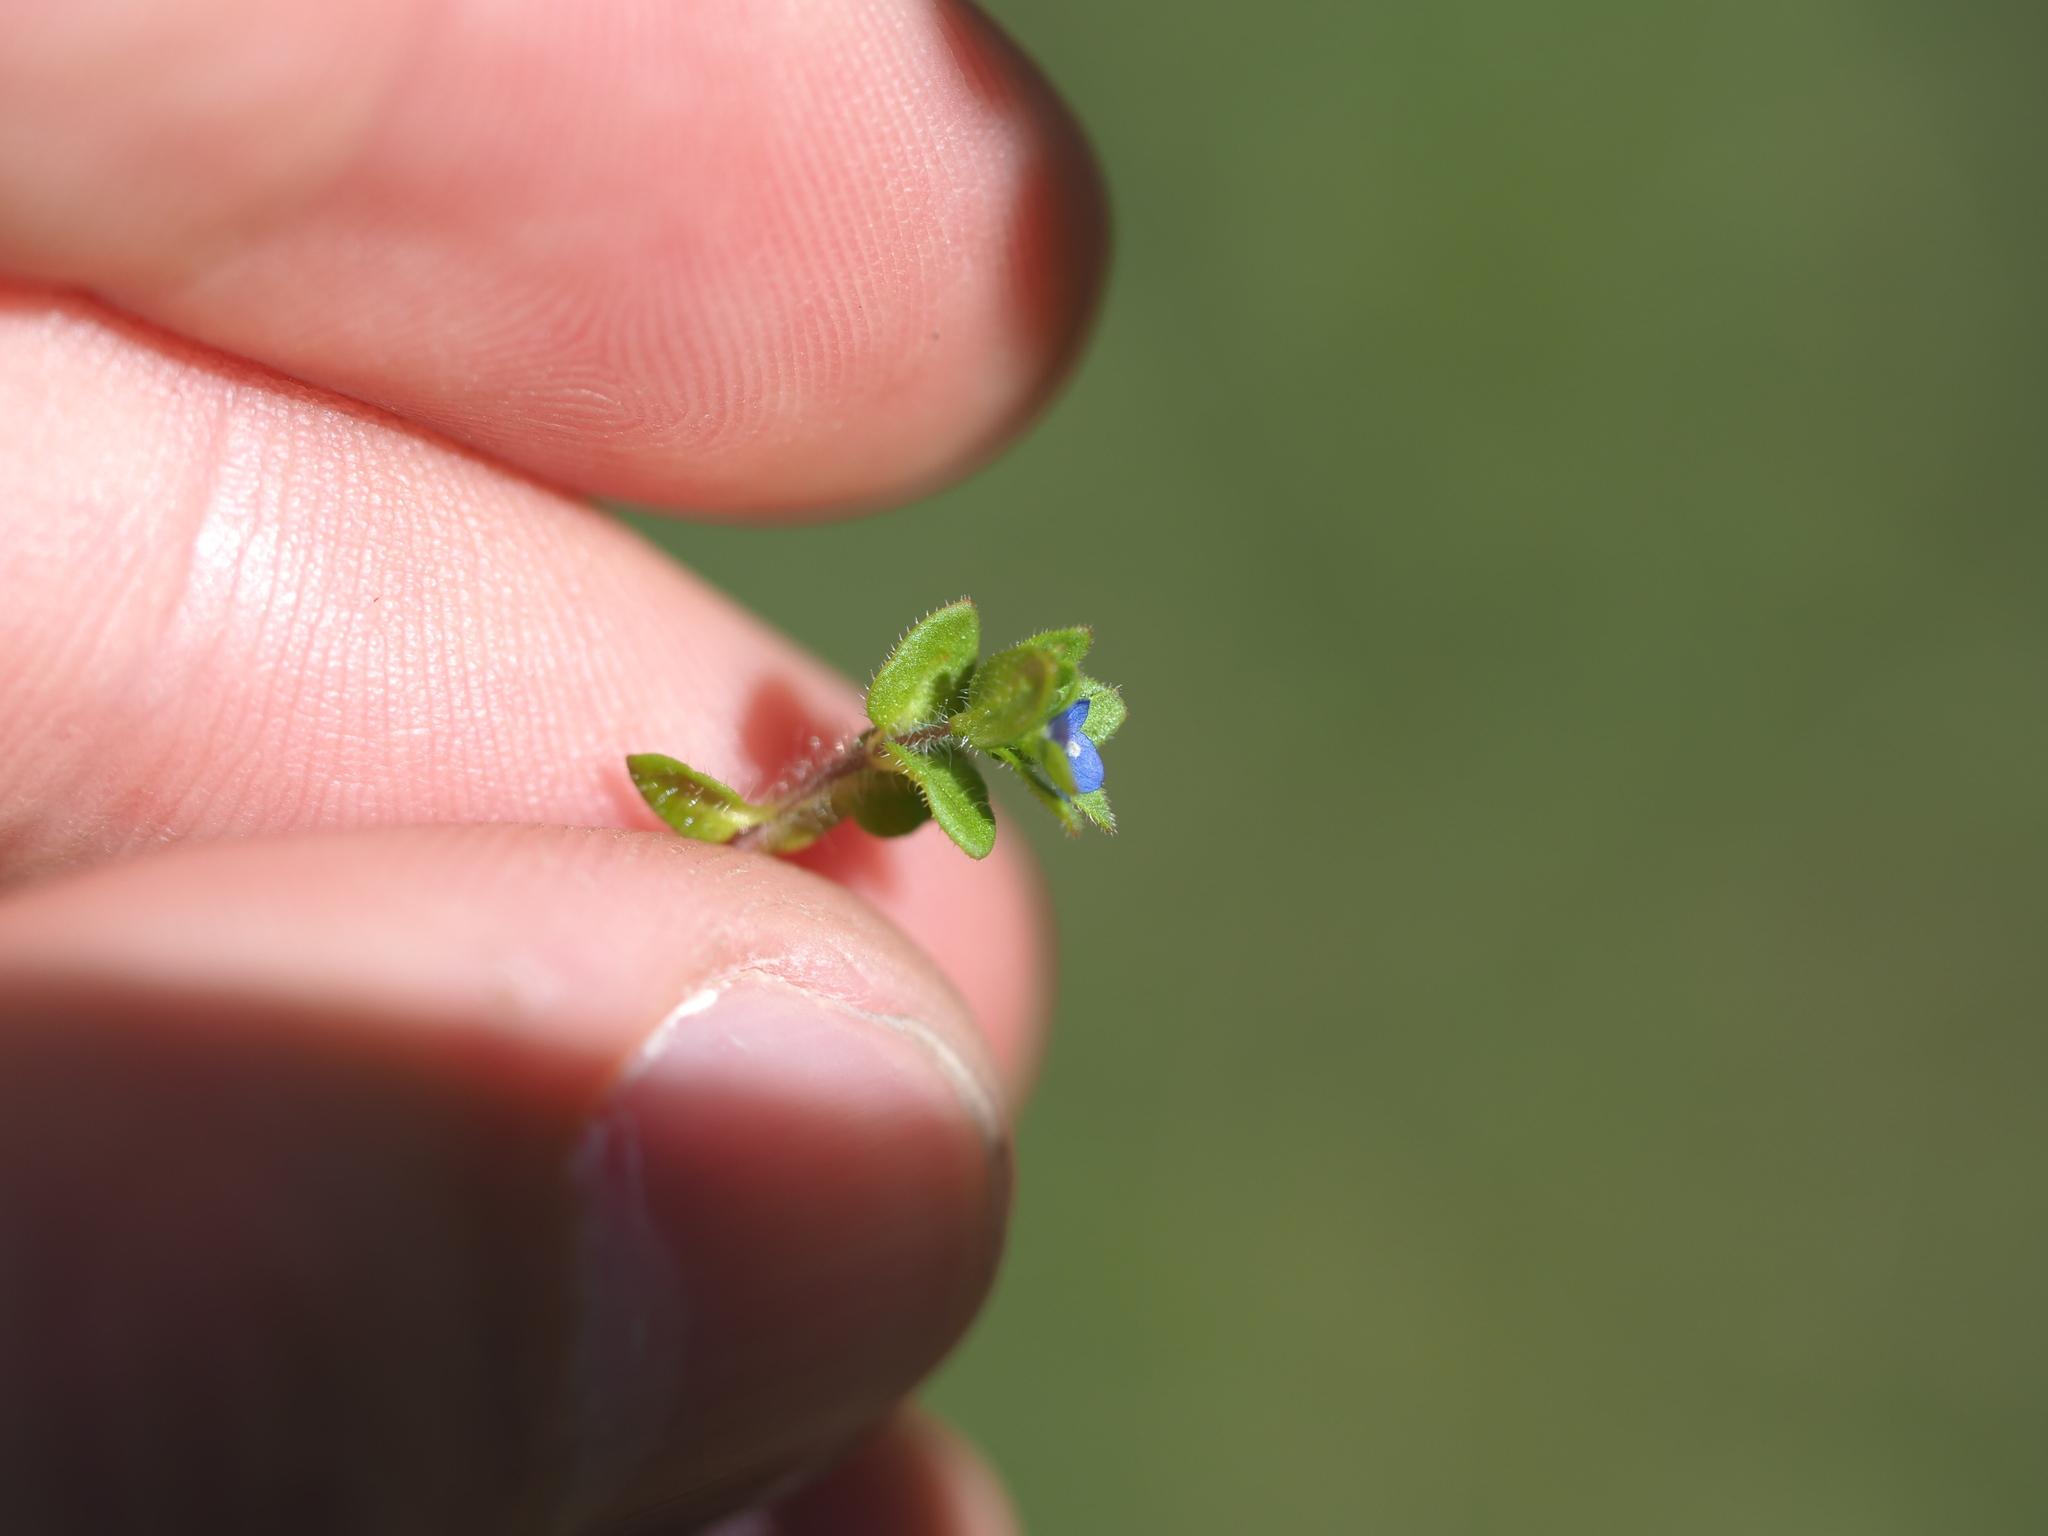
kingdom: Plantae
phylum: Tracheophyta
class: Magnoliopsida
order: Lamiales
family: Plantaginaceae
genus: Veronica
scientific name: Veronica arvensis
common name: Corn speedwell
